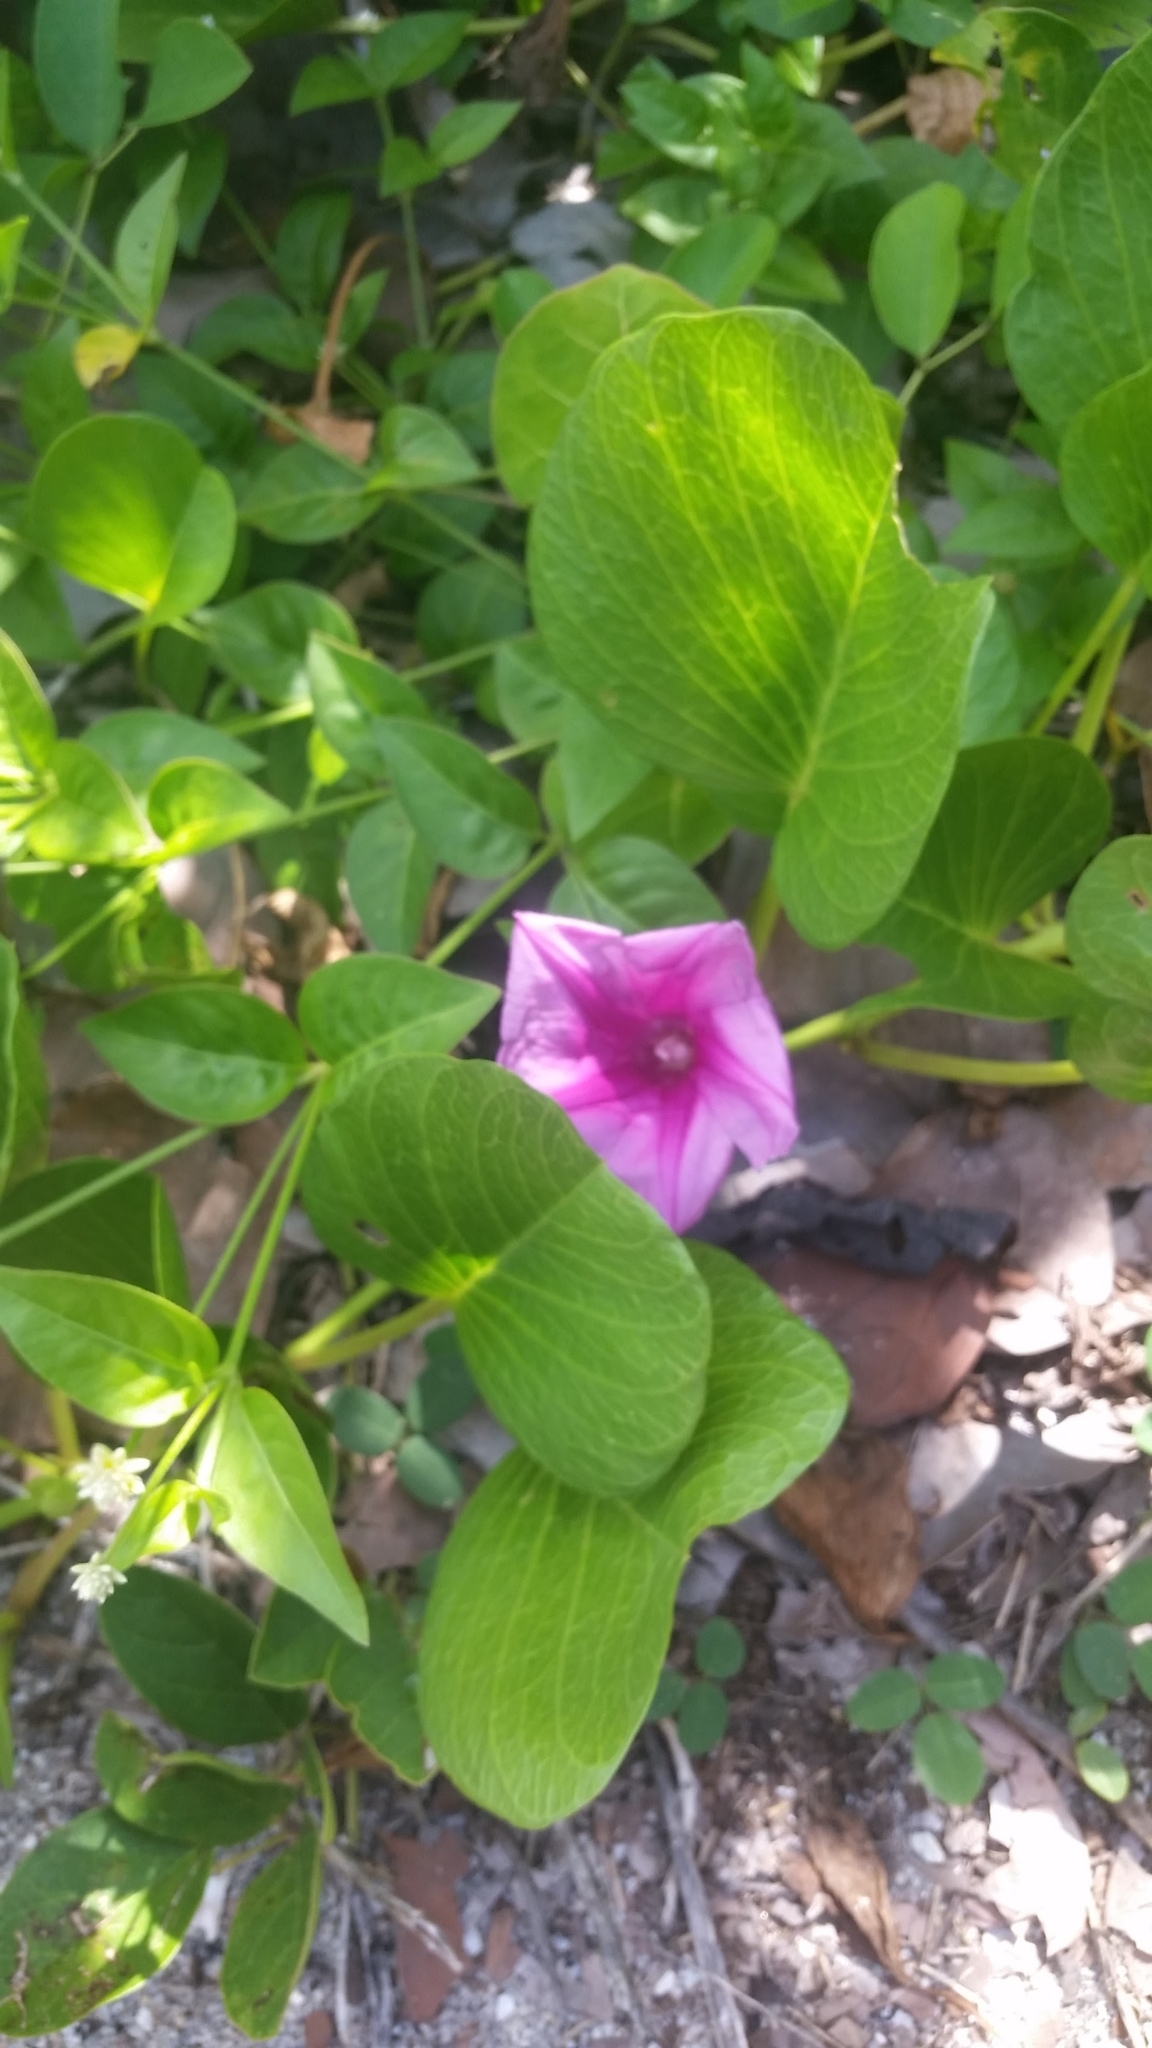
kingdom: Plantae
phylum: Tracheophyta
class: Magnoliopsida
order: Solanales
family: Convolvulaceae
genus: Ipomoea
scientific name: Ipomoea pes-caprae
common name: Beach morning glory
